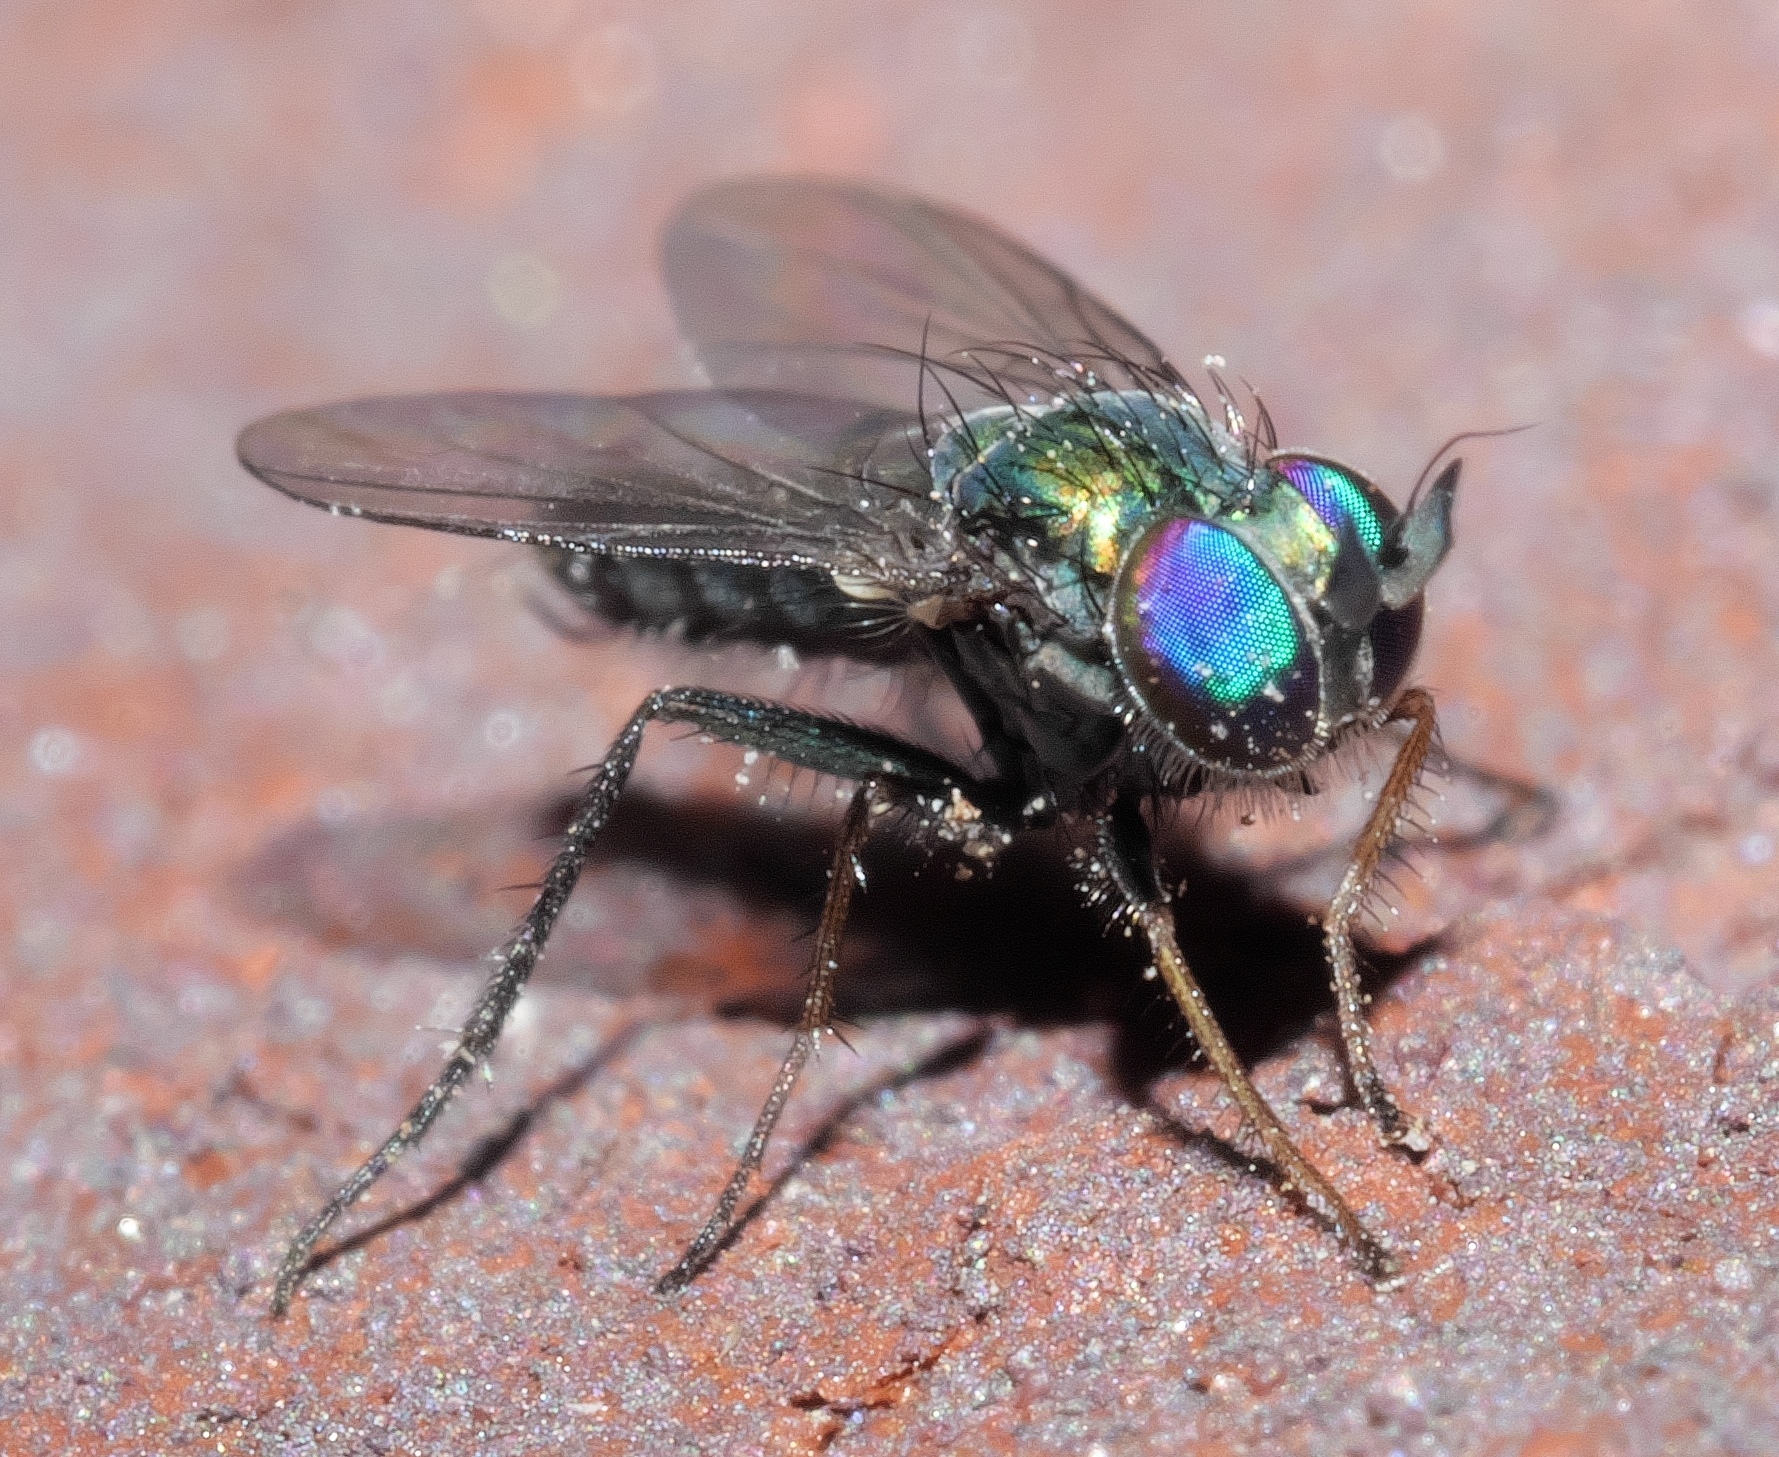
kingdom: Animalia
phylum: Arthropoda
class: Insecta
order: Diptera
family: Dolichopodidae
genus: Asyndetus
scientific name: Asyndetus syntormoides
